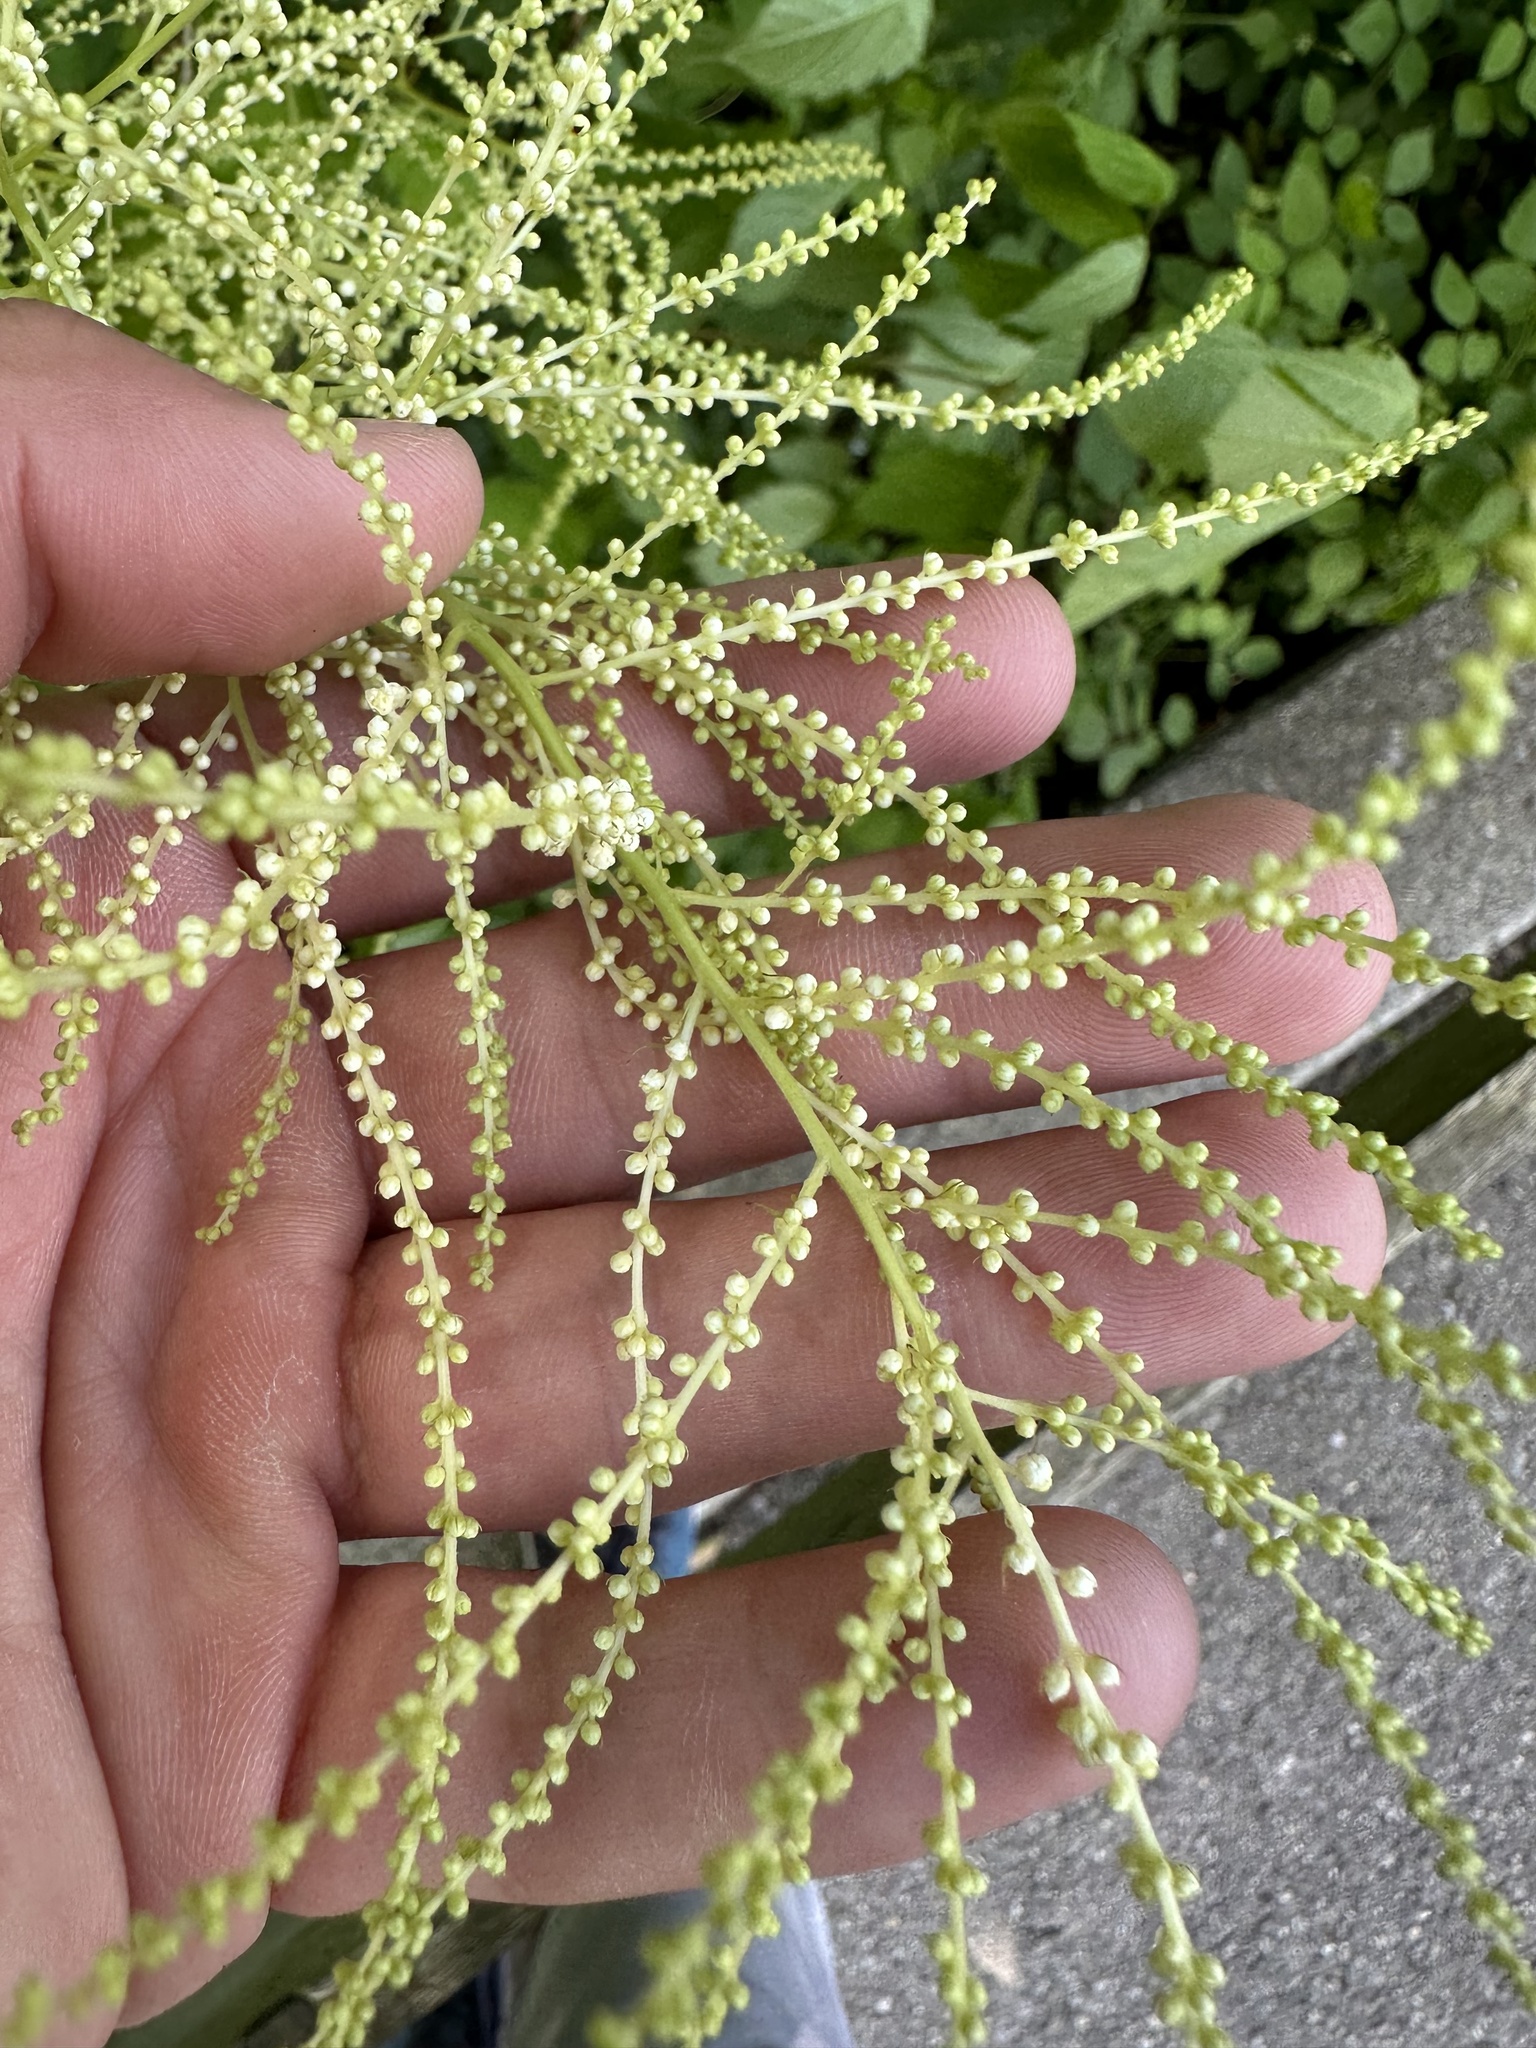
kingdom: Plantae
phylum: Tracheophyta
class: Magnoliopsida
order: Rosales
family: Rosaceae
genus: Aruncus
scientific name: Aruncus dioicus
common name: Buck's-beard
